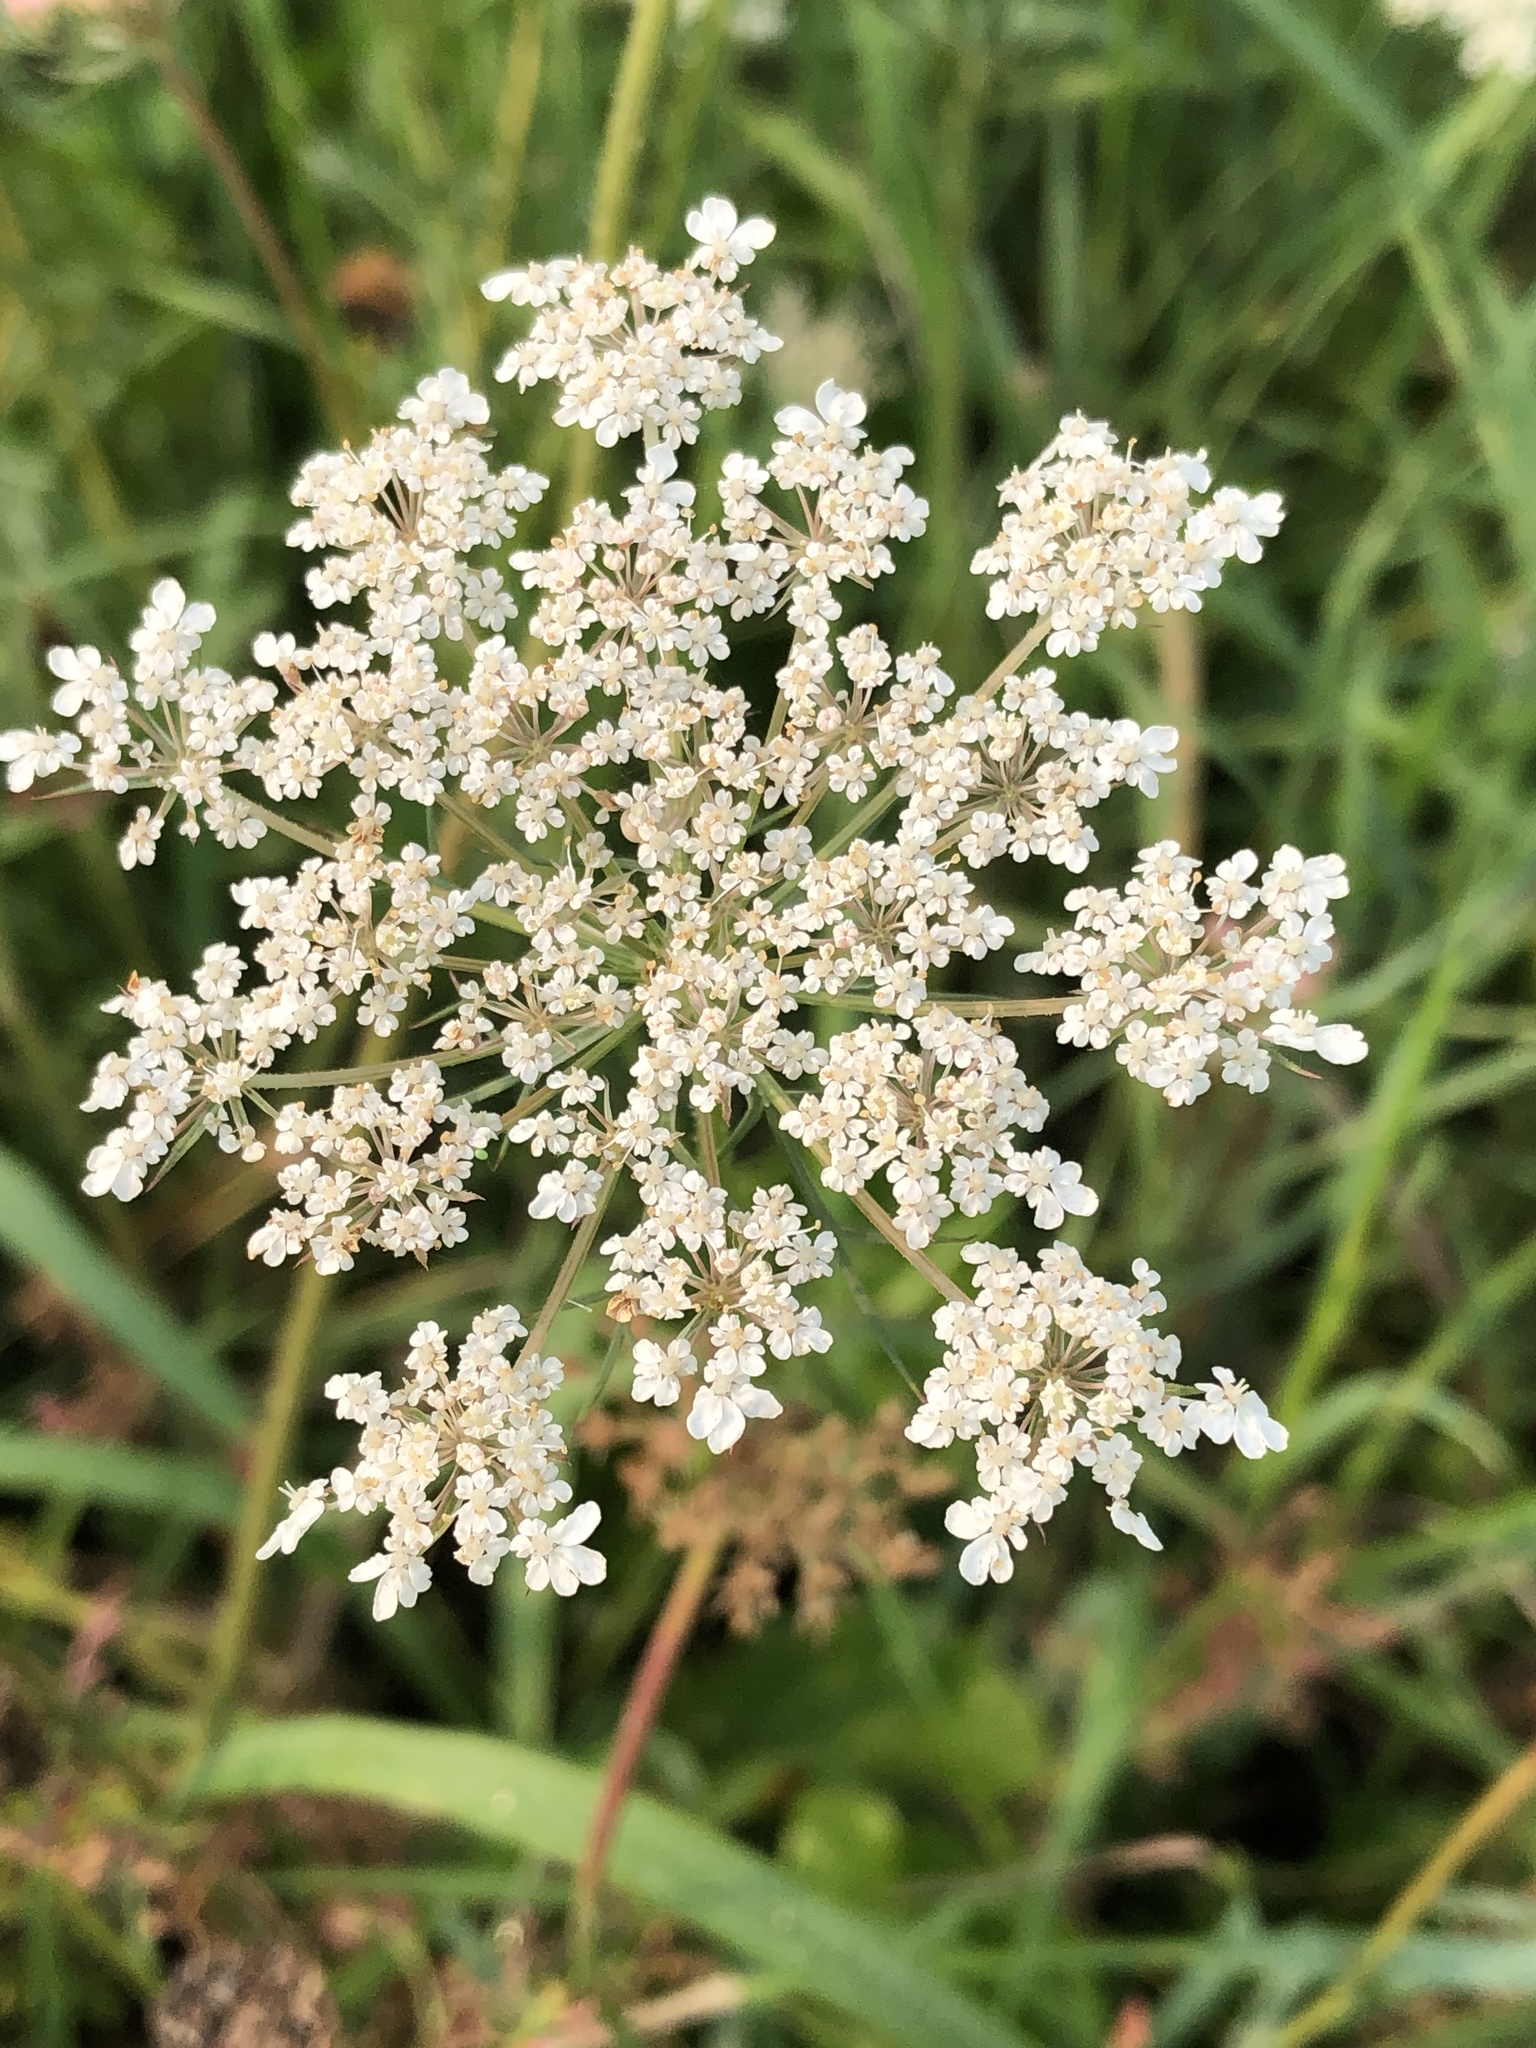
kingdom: Plantae
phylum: Tracheophyta
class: Magnoliopsida
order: Apiales
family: Apiaceae
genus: Daucus
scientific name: Daucus carota
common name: Wild carrot
